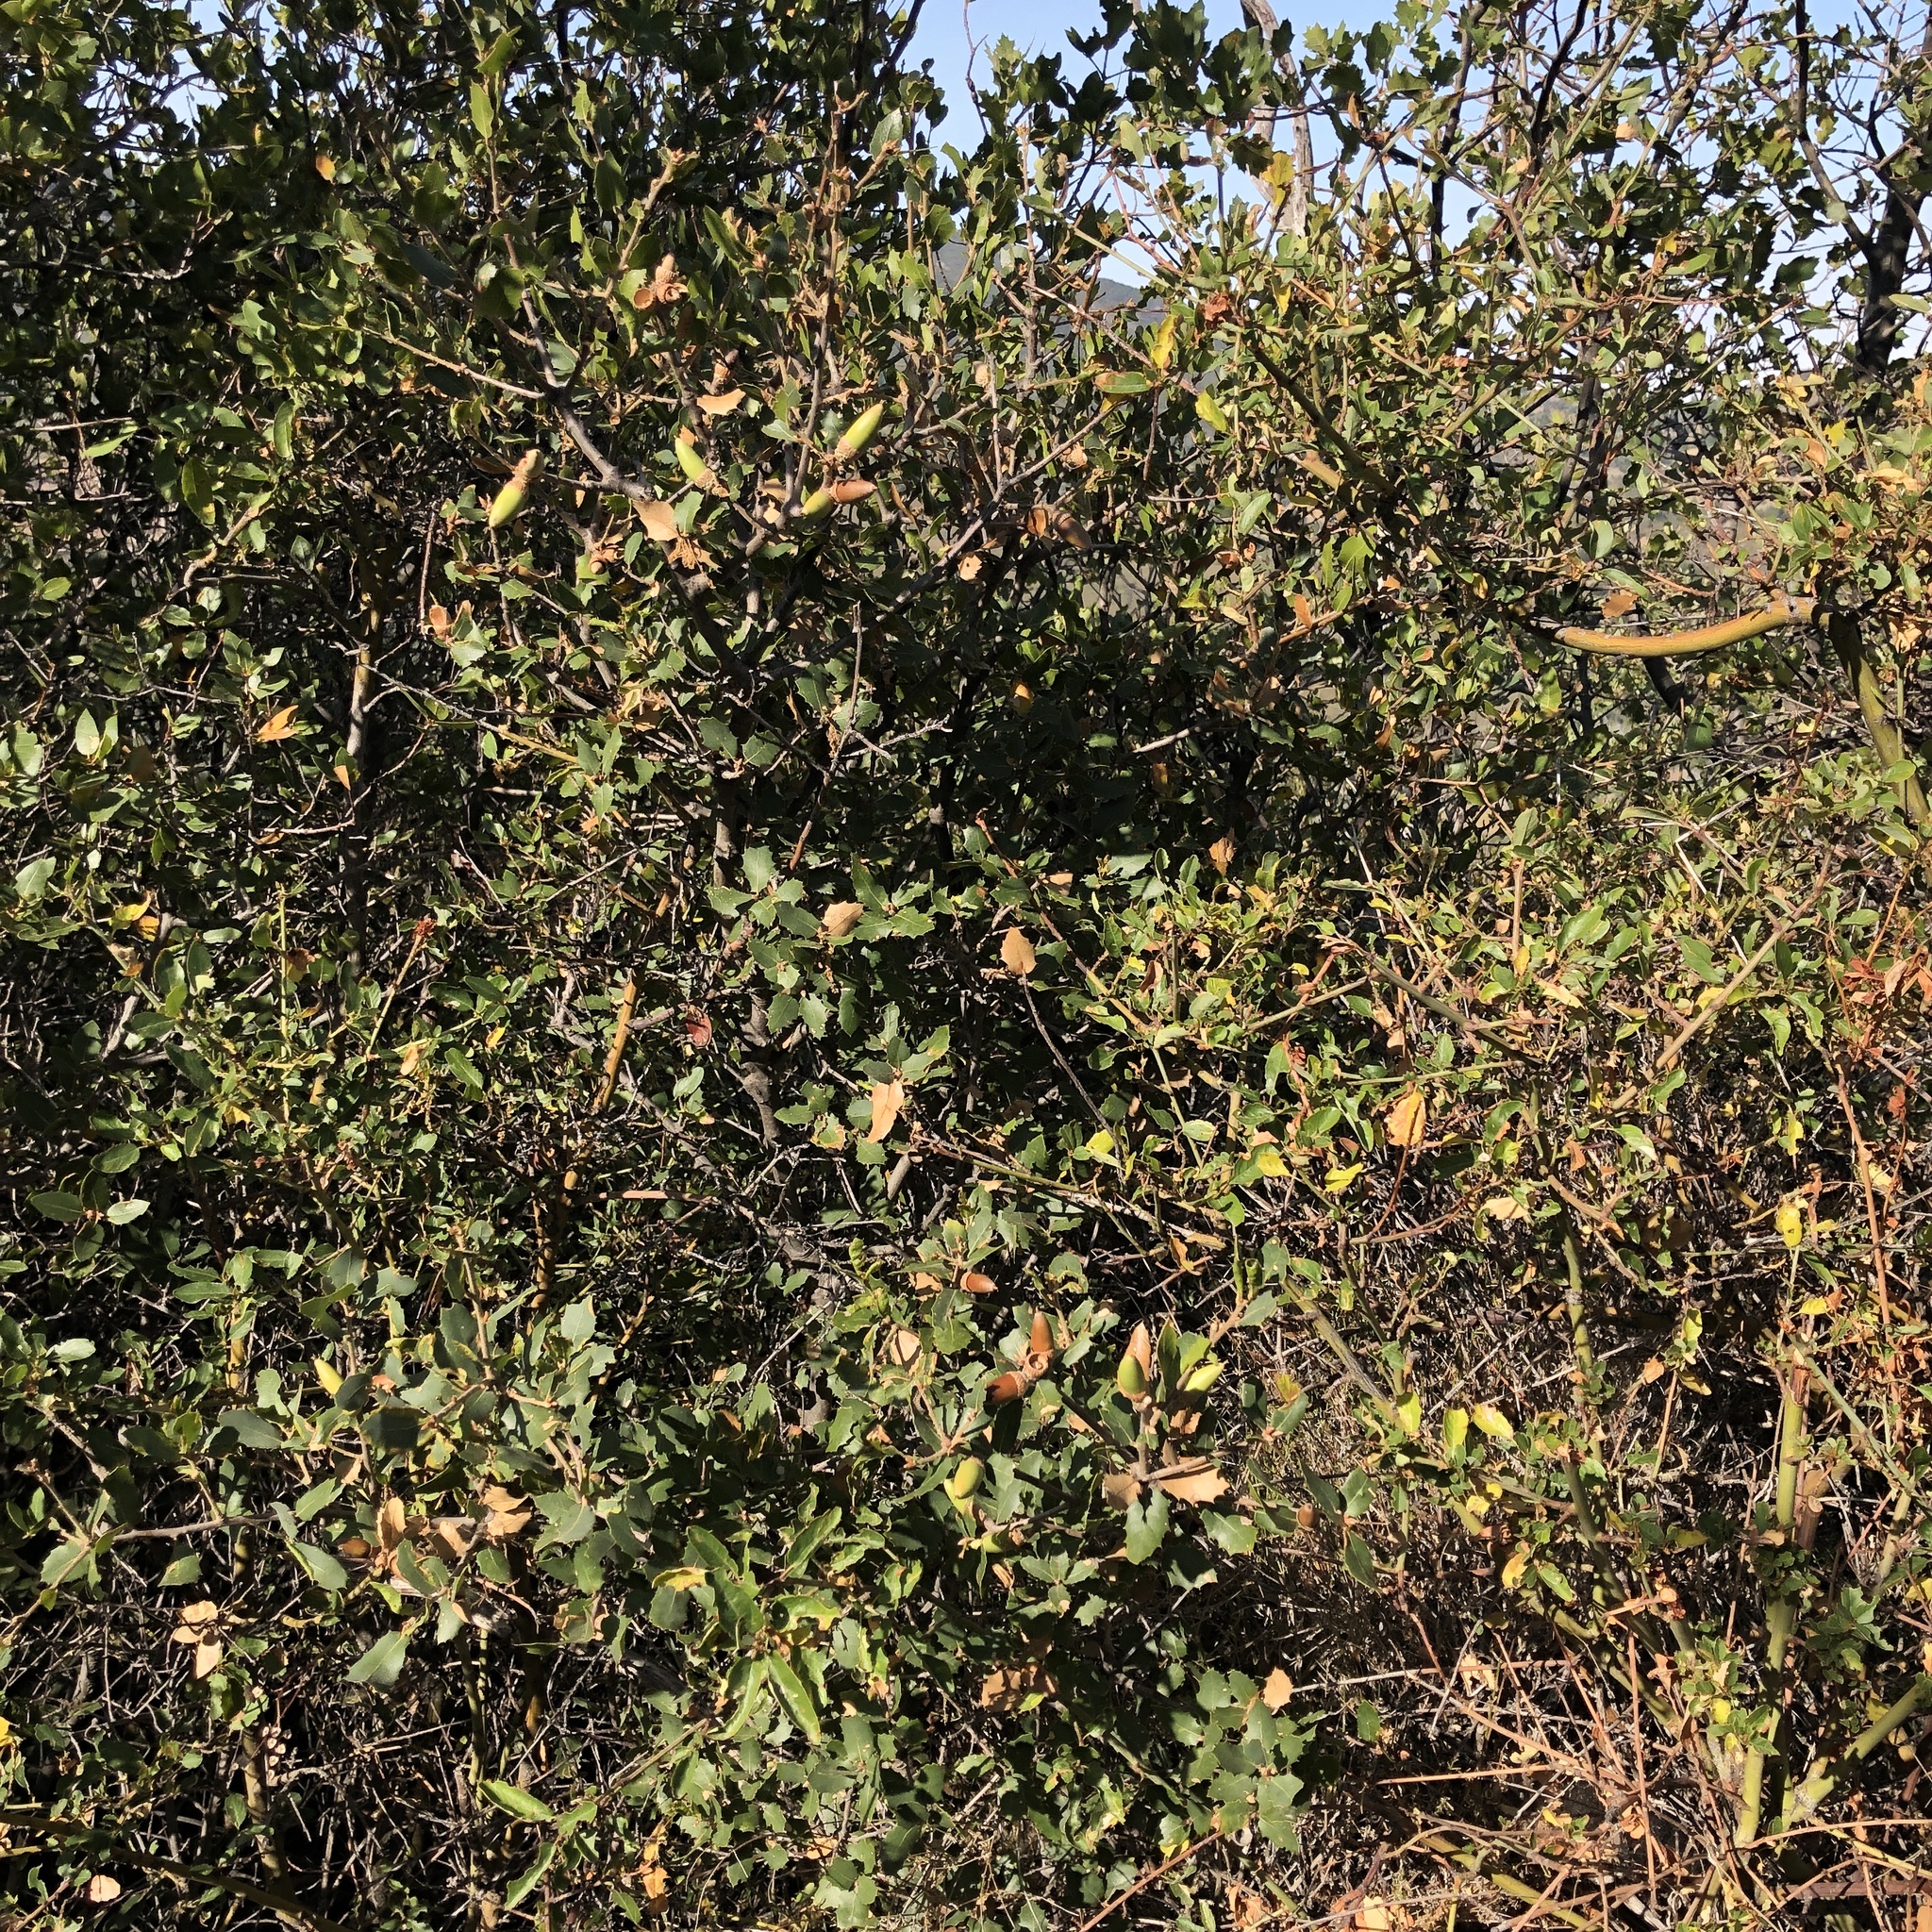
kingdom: Plantae
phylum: Tracheophyta
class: Magnoliopsida
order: Fagales
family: Fagaceae
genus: Quercus
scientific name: Quercus wislizeni
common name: Interior live oak
